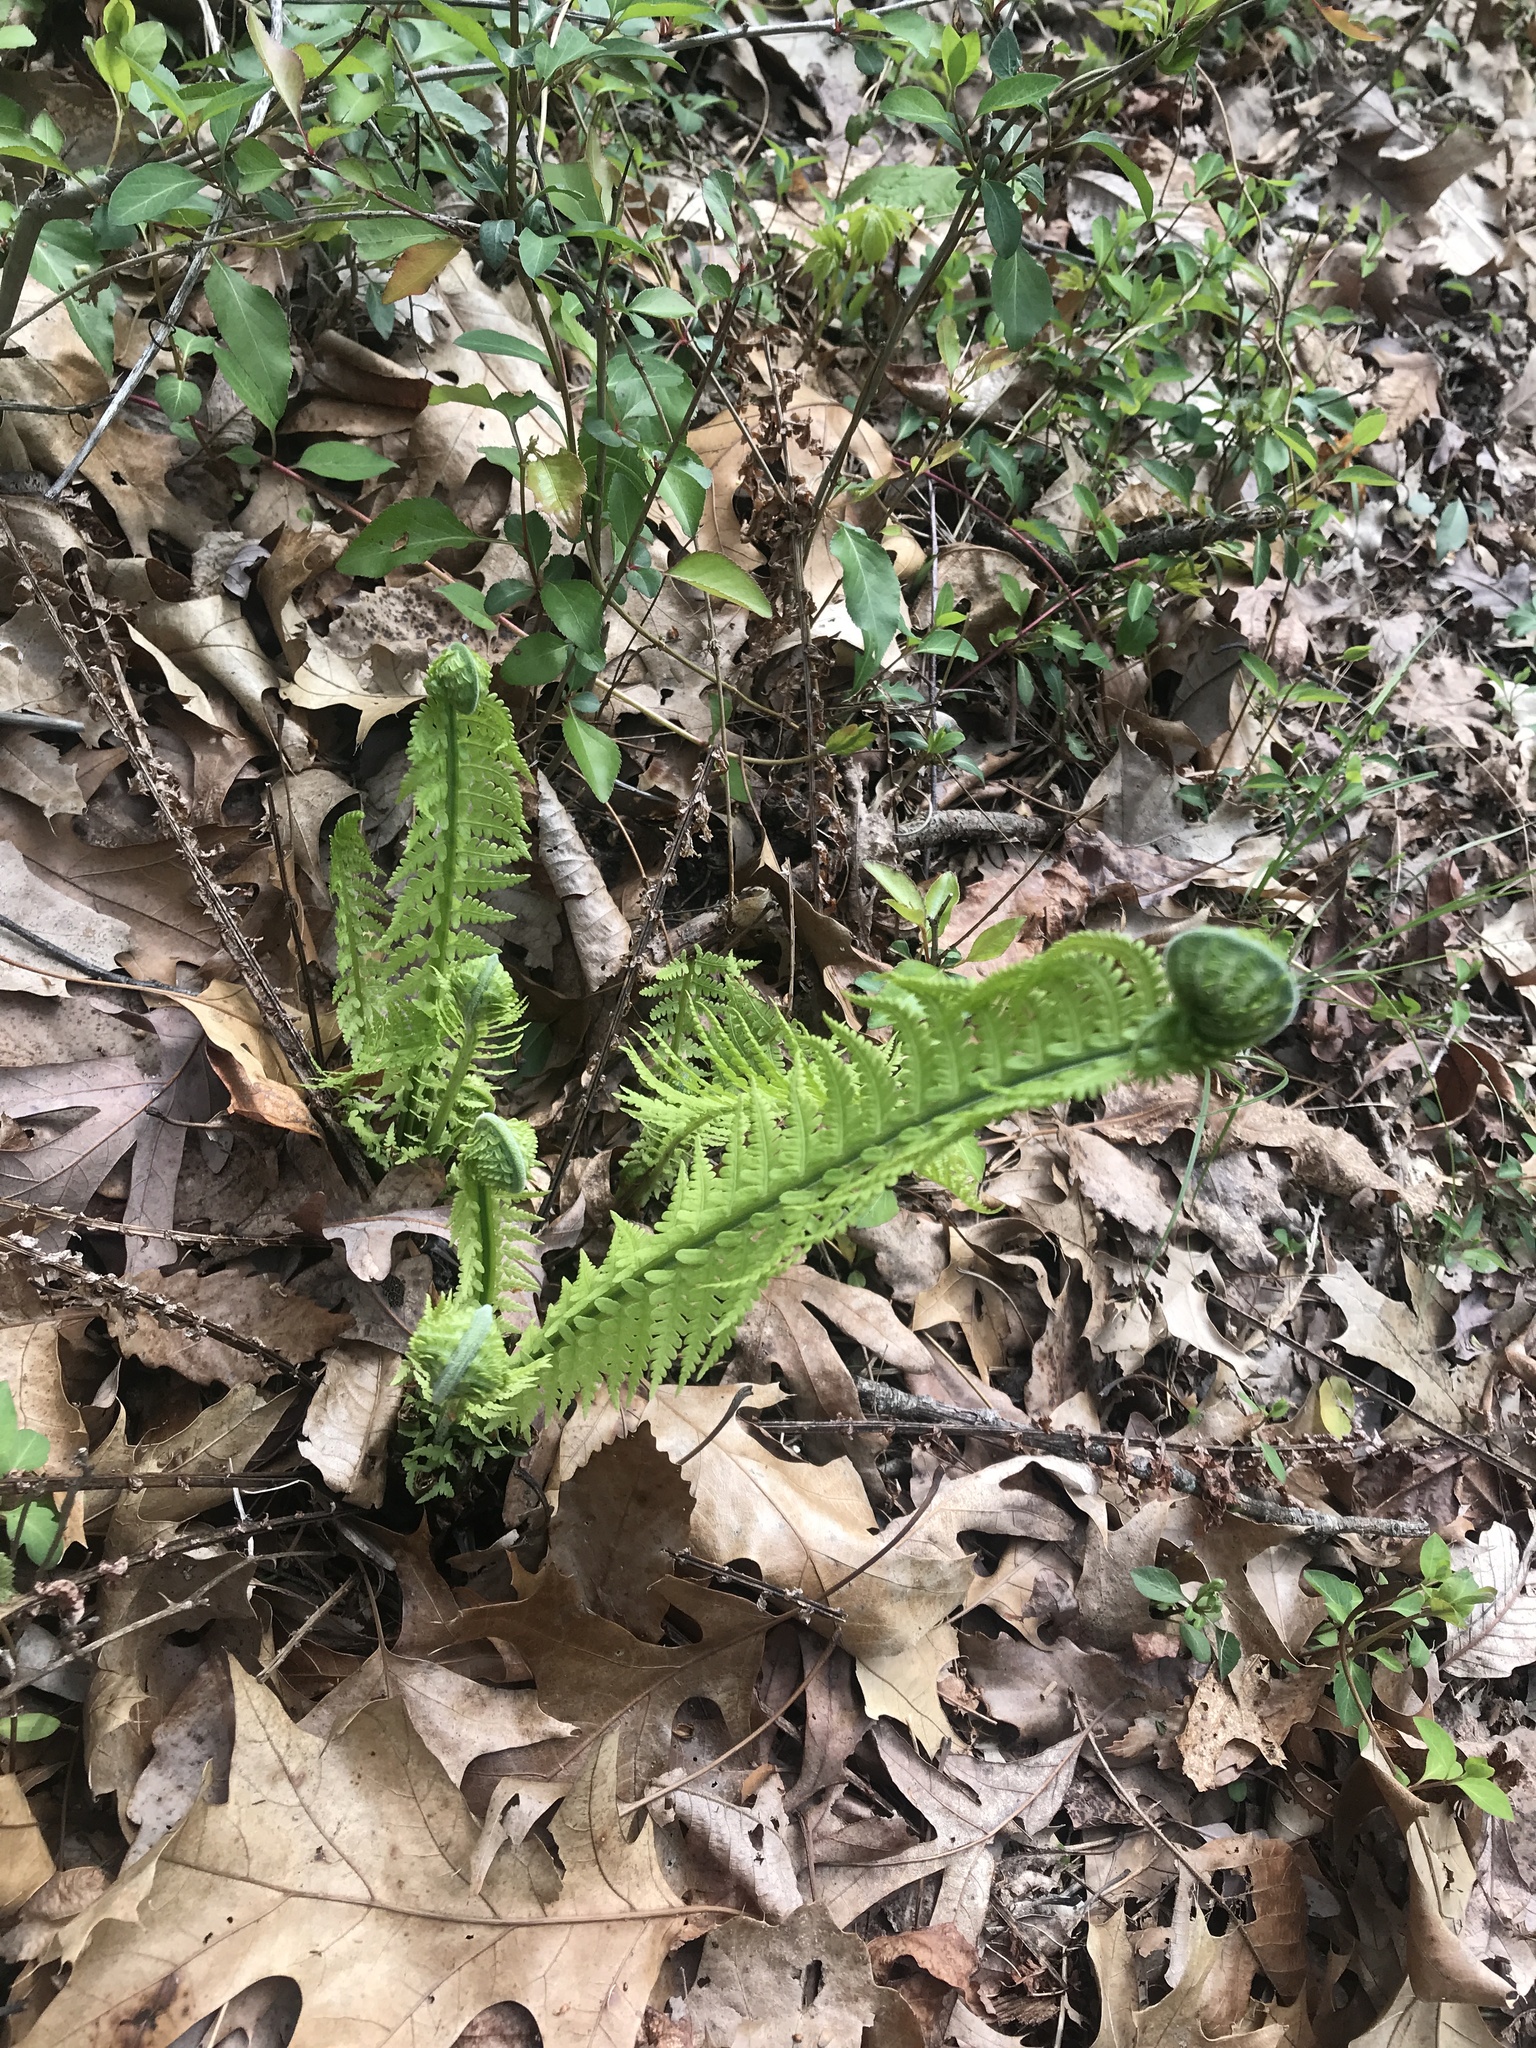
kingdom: Plantae
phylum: Tracheophyta
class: Polypodiopsida
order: Polypodiales
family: Onocleaceae
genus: Matteuccia
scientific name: Matteuccia struthiopteris
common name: Ostrich fern
